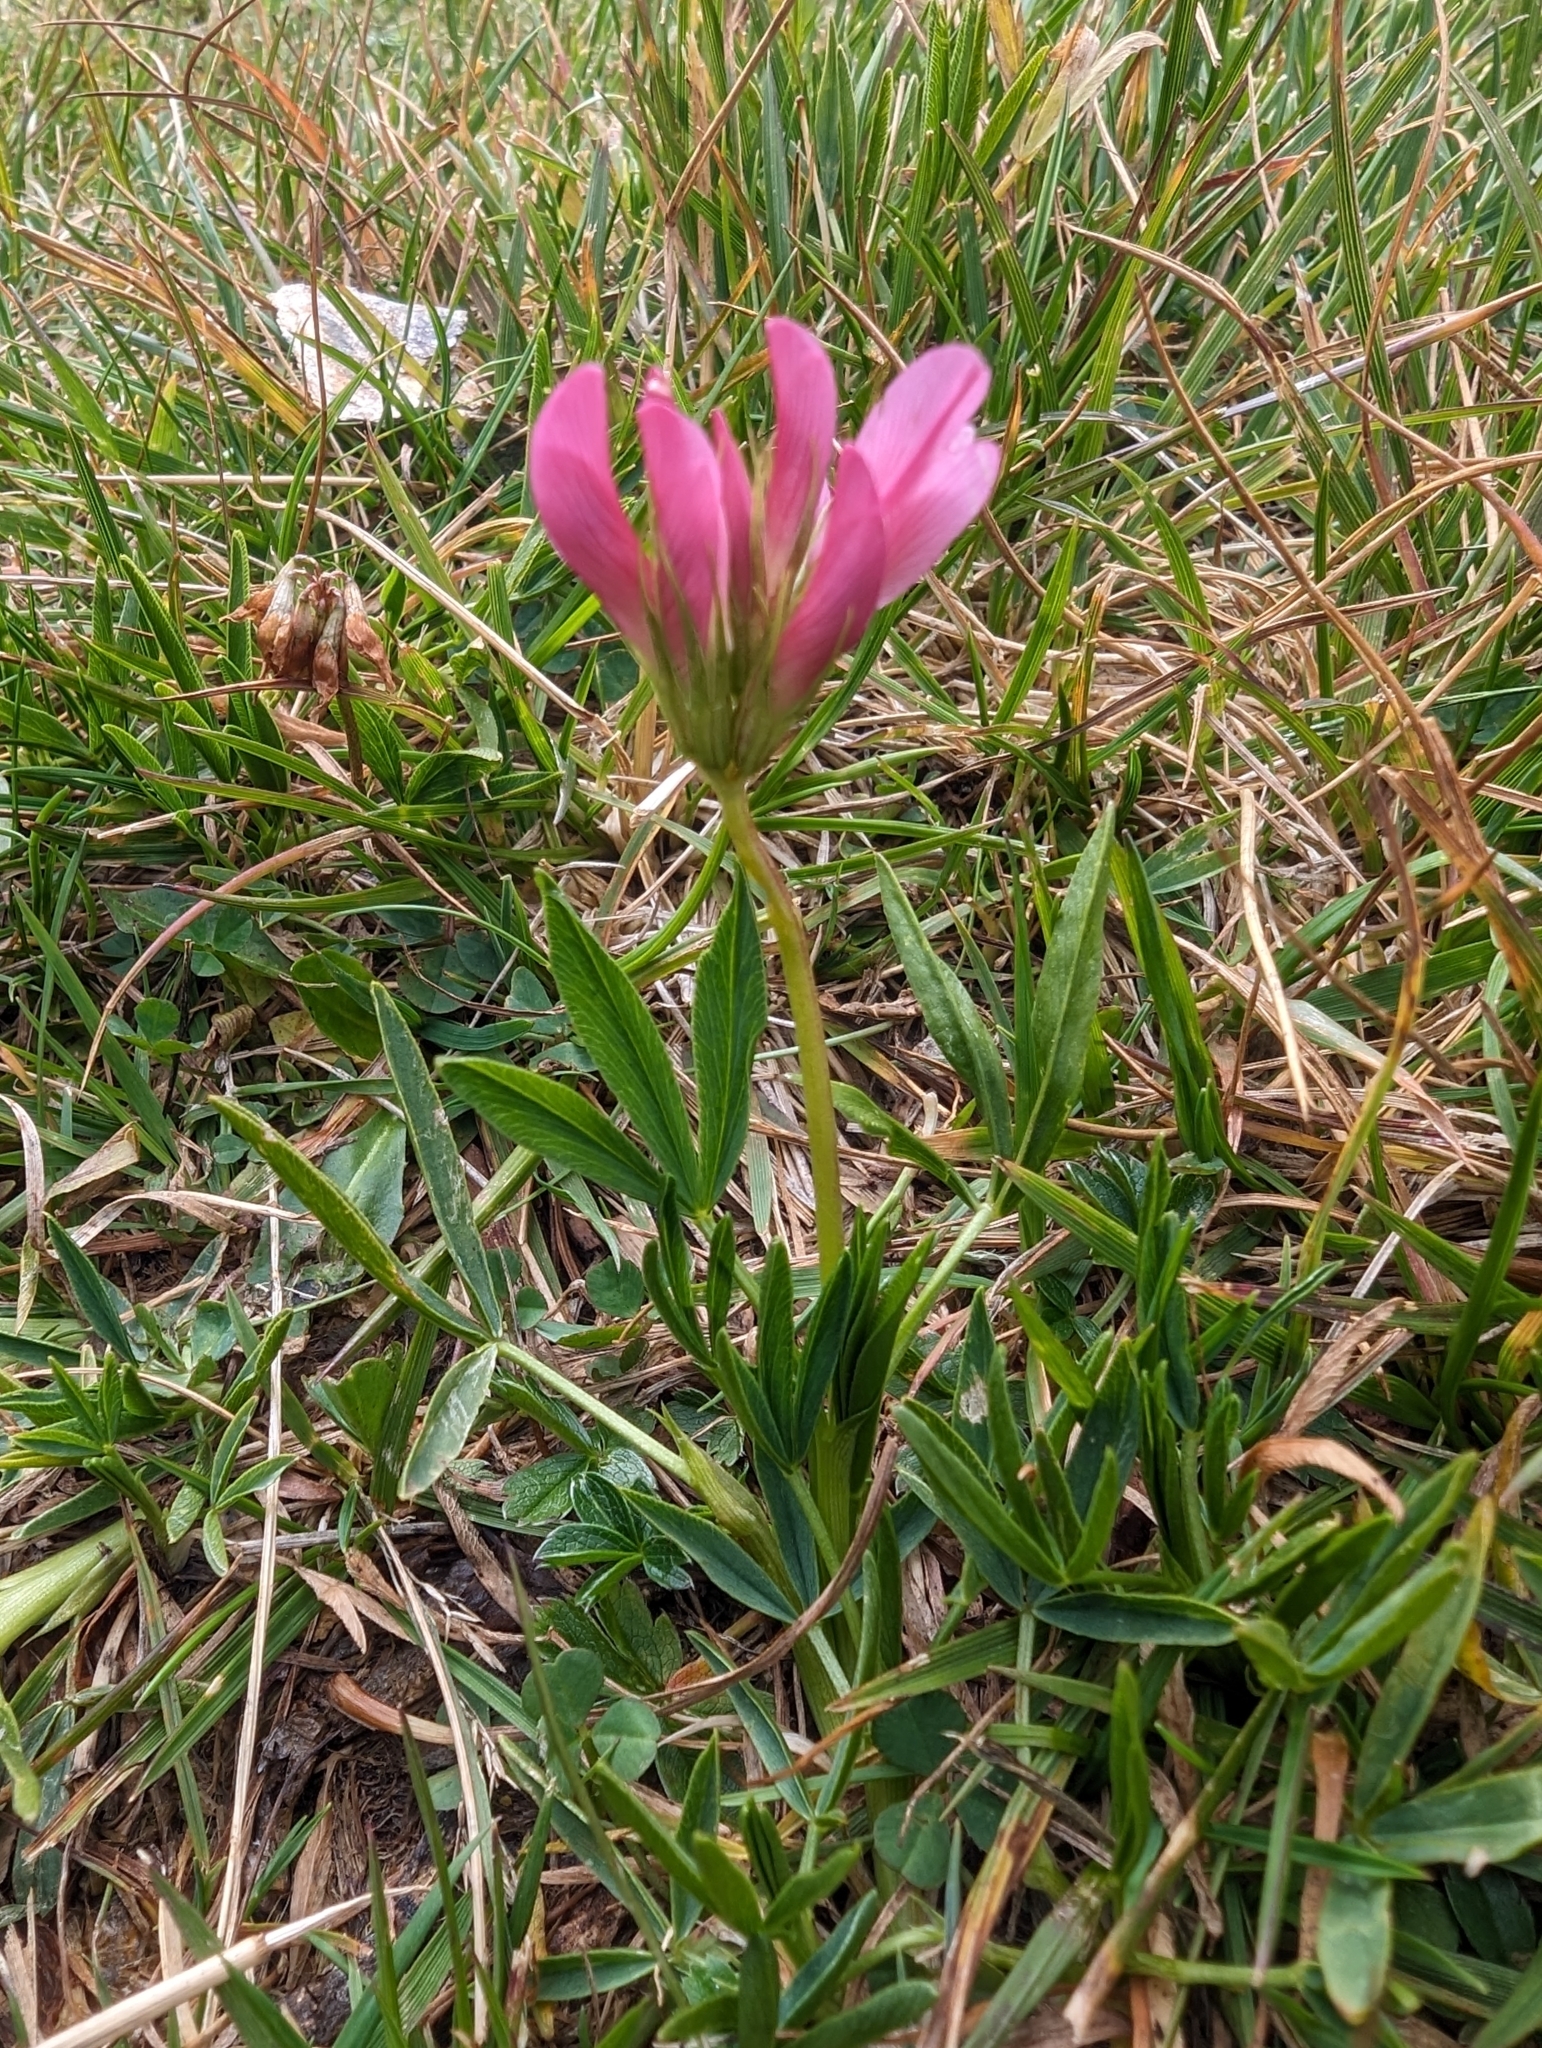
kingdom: Plantae
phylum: Tracheophyta
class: Magnoliopsida
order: Fabales
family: Fabaceae
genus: Trifolium
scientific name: Trifolium alpinum
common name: Alpine clover
